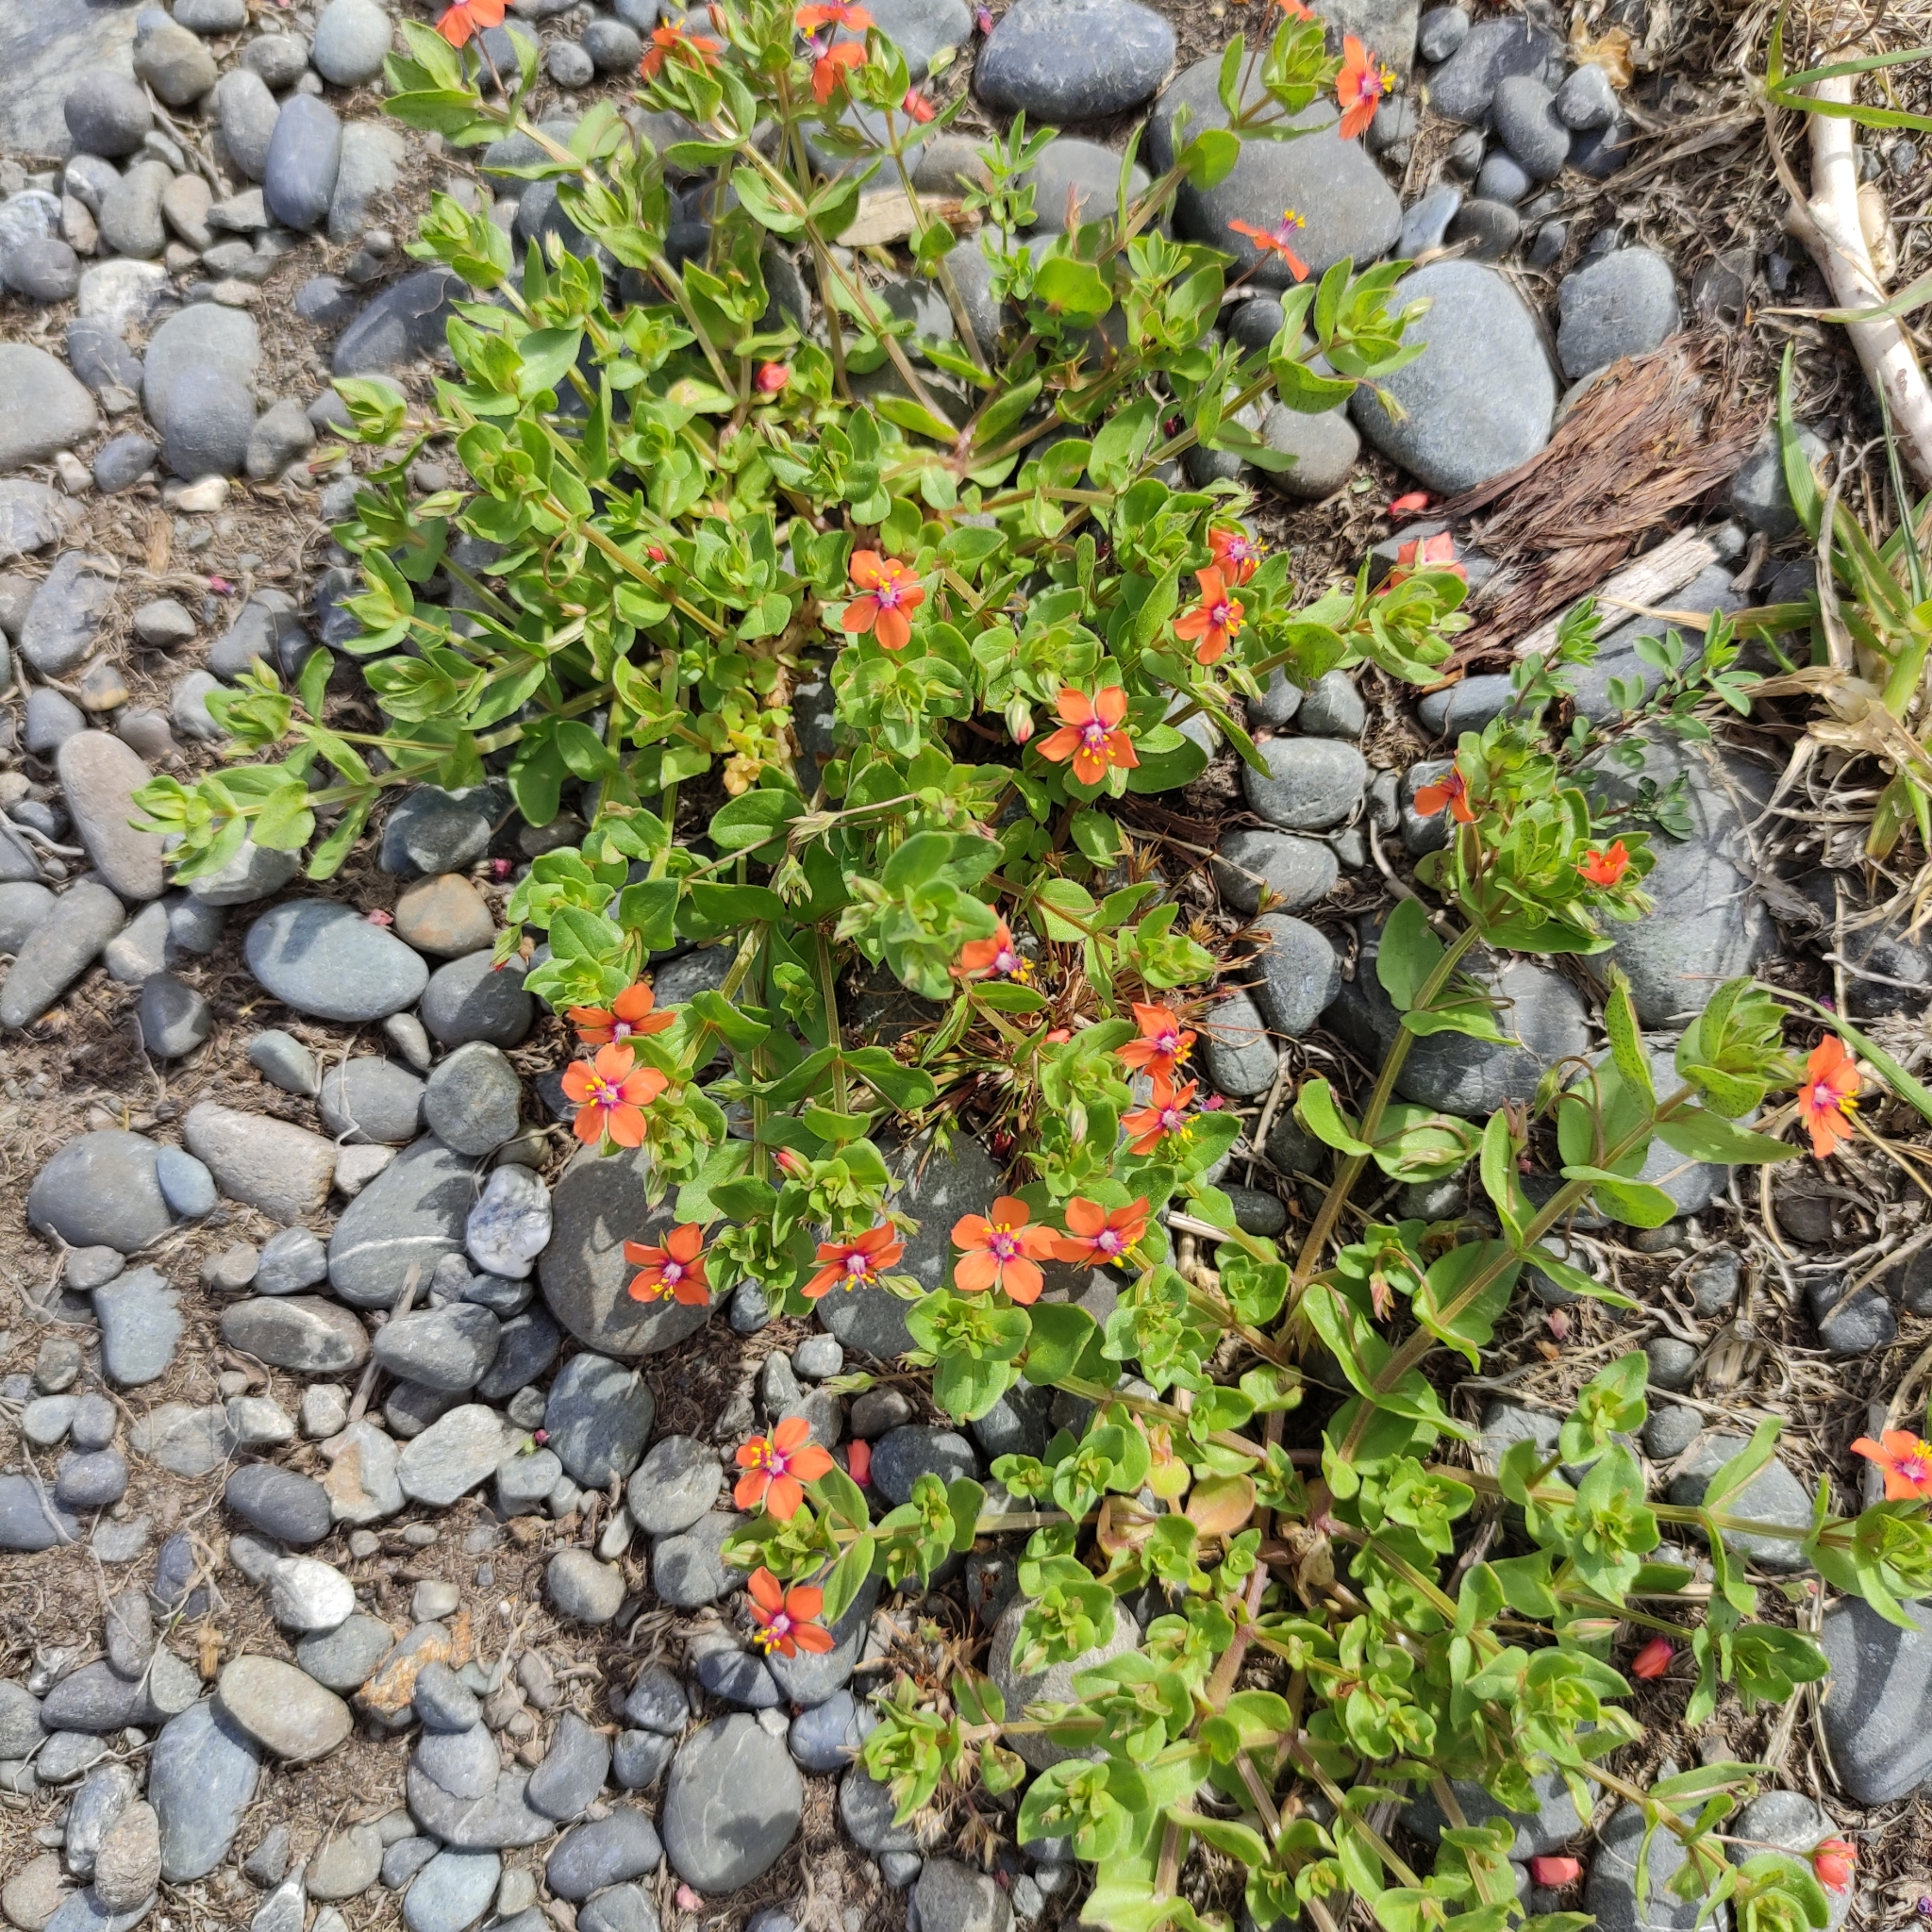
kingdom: Plantae
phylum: Tracheophyta
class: Magnoliopsida
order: Ericales
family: Primulaceae
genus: Lysimachia
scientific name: Lysimachia arvensis
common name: Scarlet pimpernel
